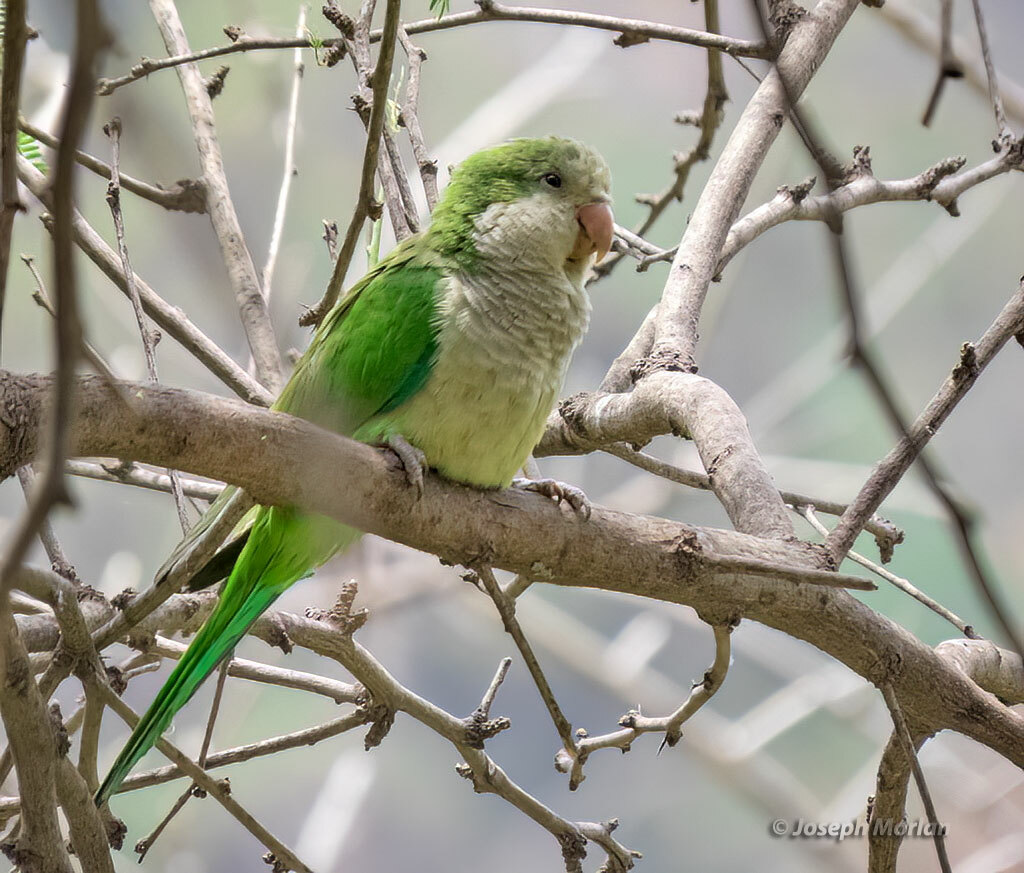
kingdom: Animalia
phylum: Chordata
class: Aves
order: Psittaciformes
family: Psittacidae
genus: Myiopsitta
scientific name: Myiopsitta monachus
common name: Monk parakeet
